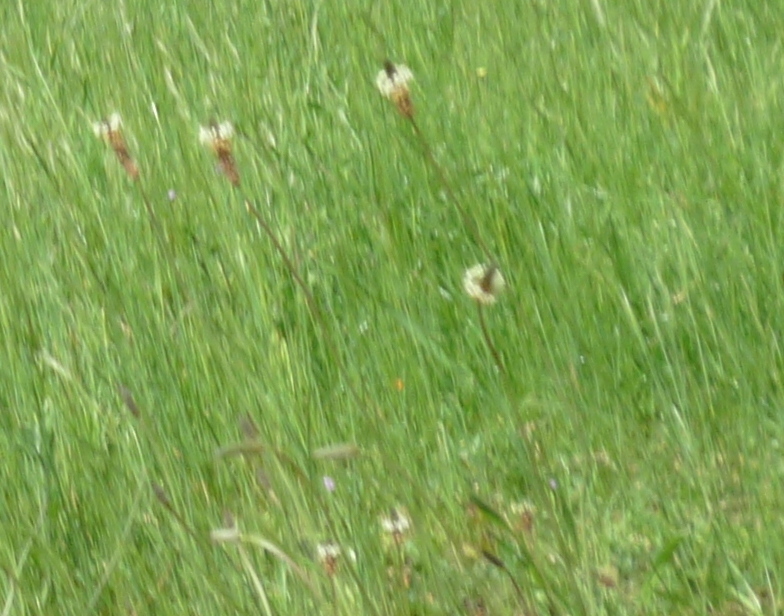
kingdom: Plantae
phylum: Tracheophyta
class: Magnoliopsida
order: Lamiales
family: Plantaginaceae
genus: Plantago
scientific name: Plantago lanceolata
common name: Ribwort plantain
